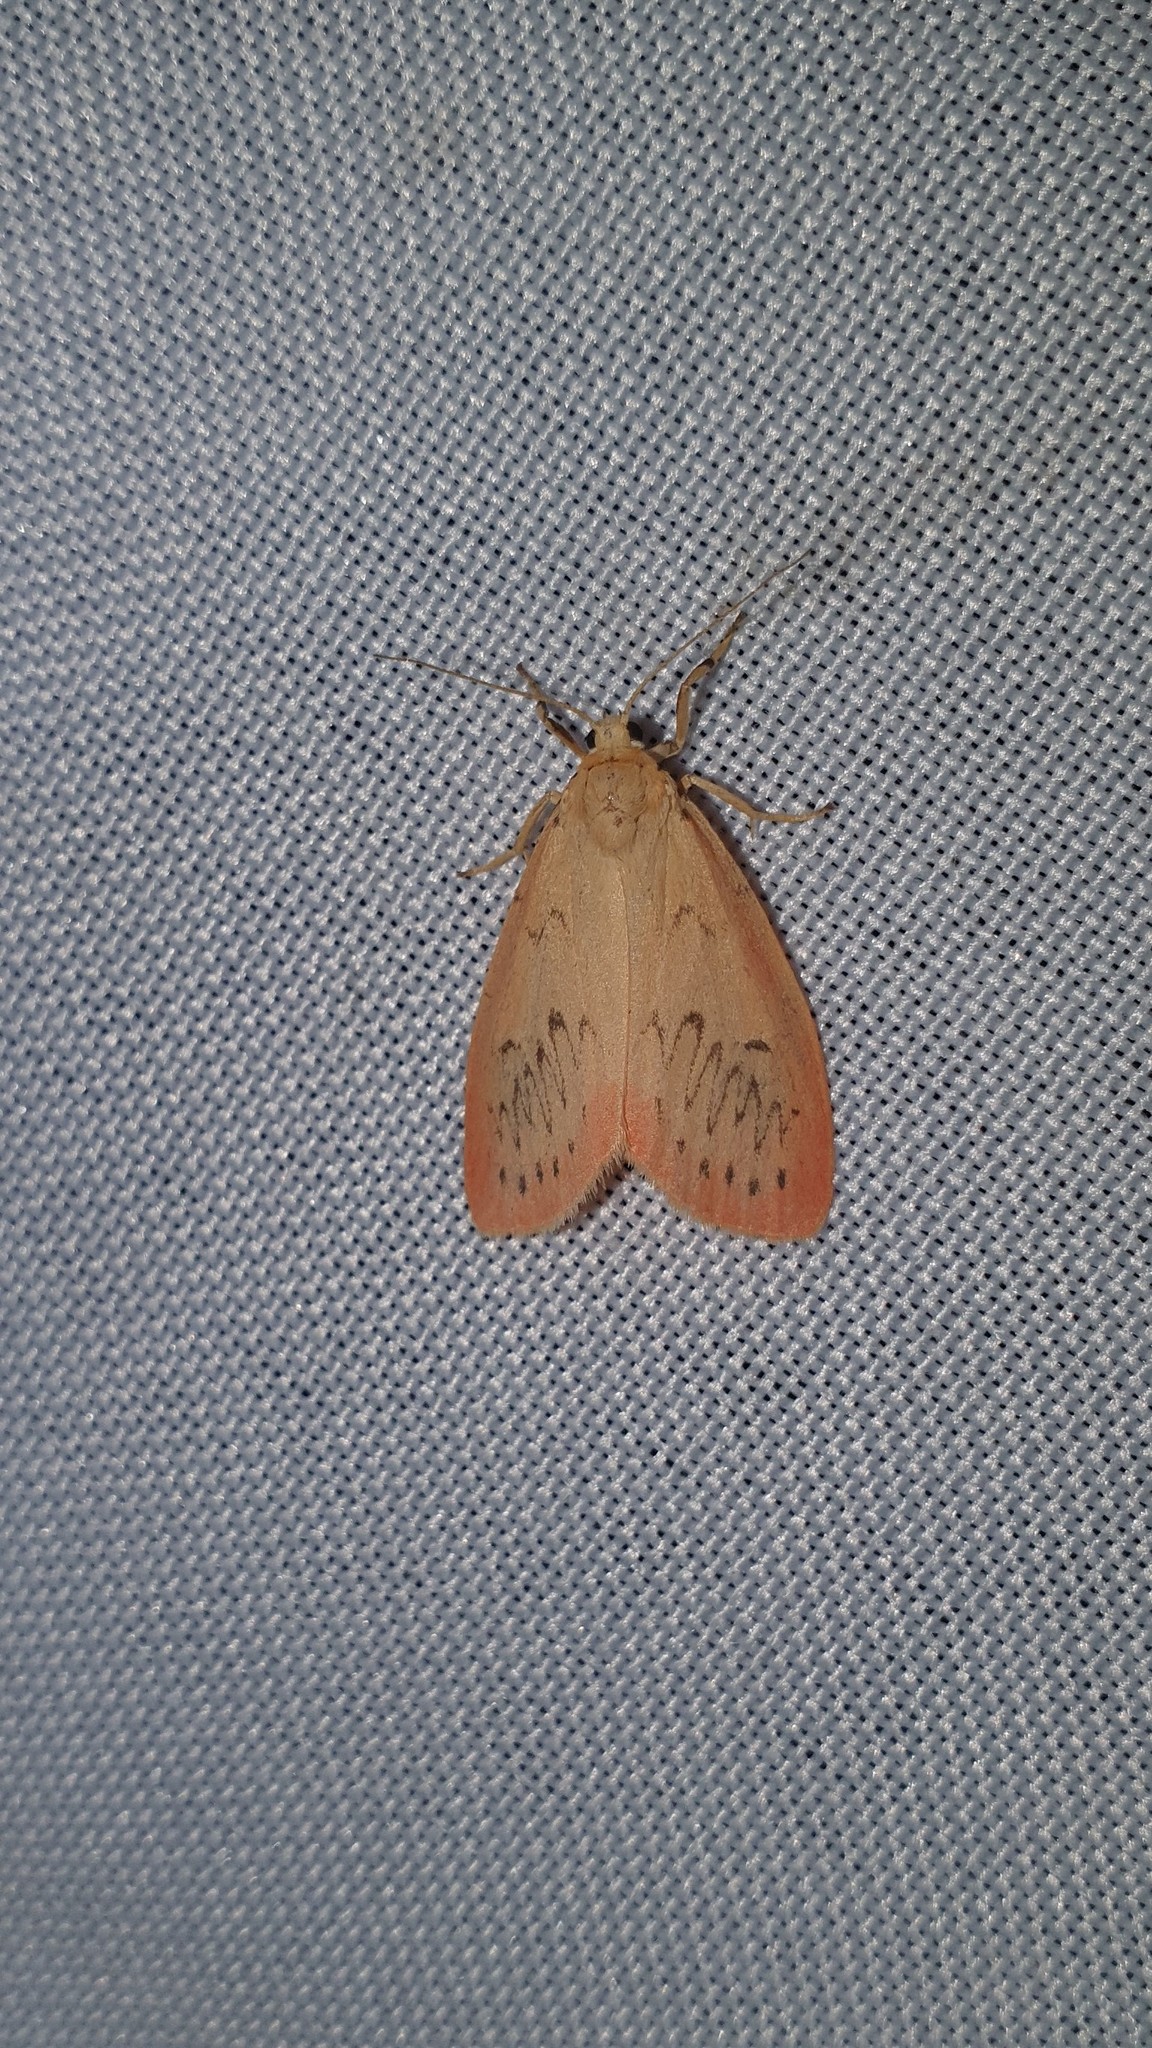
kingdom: Animalia
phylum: Arthropoda
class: Insecta
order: Lepidoptera
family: Erebidae
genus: Miltochrista
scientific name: Miltochrista miniata
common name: Rosy footman
